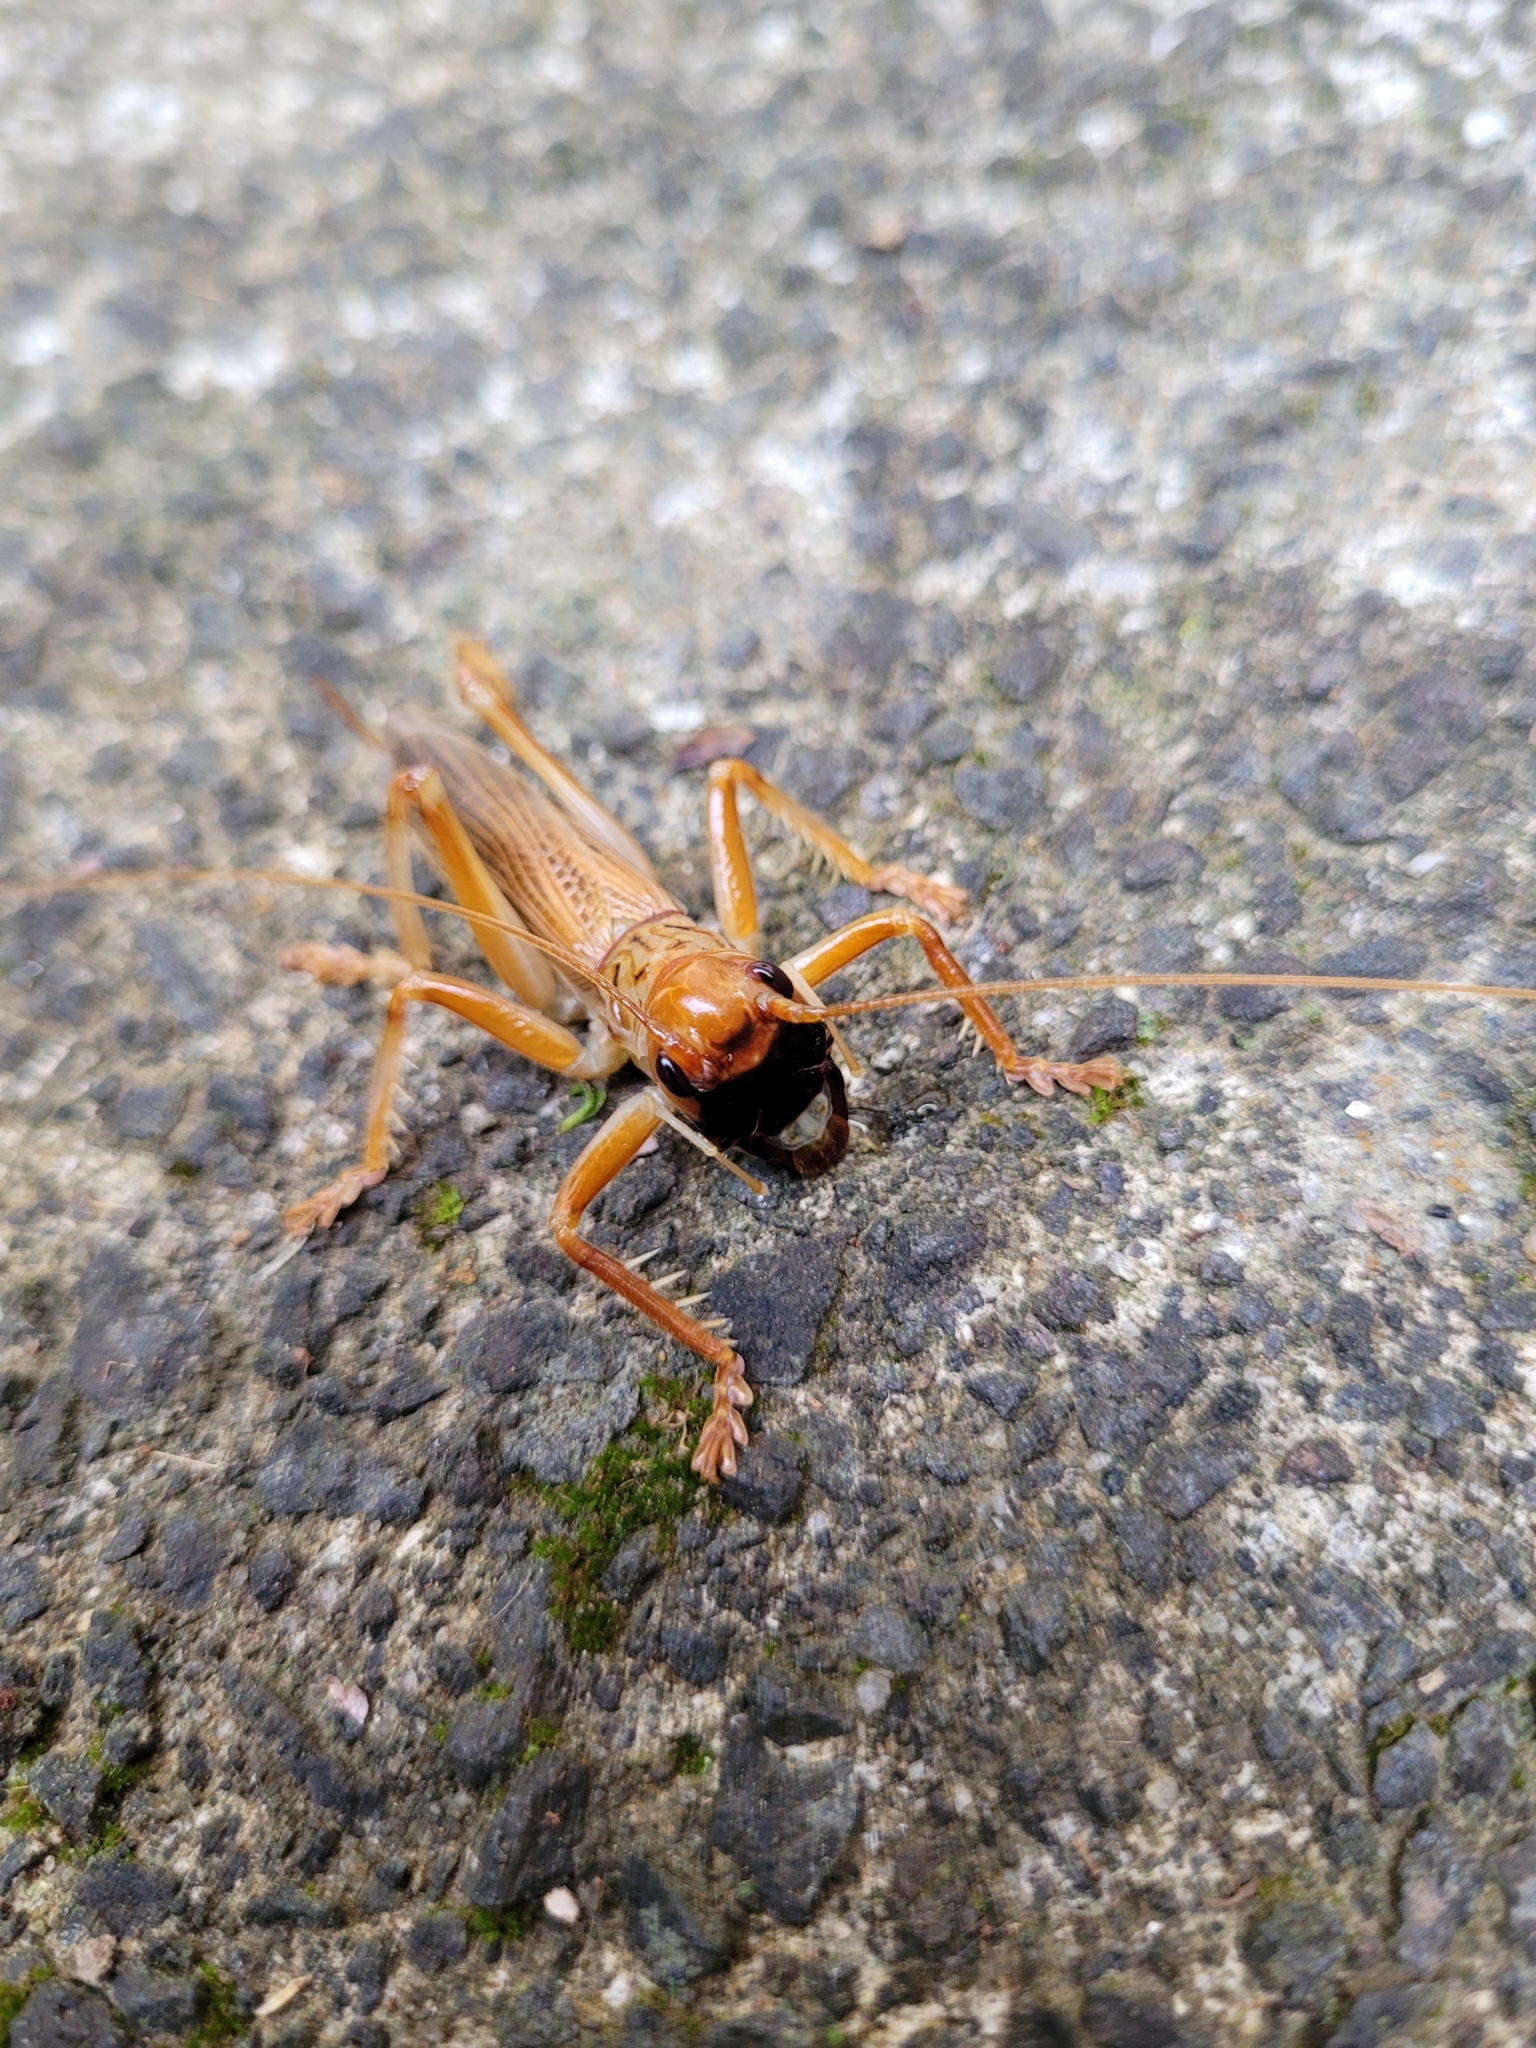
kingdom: Animalia
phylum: Arthropoda
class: Insecta
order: Orthoptera
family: Gryllacrididae
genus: Pterapotrechus
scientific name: Pterapotrechus
